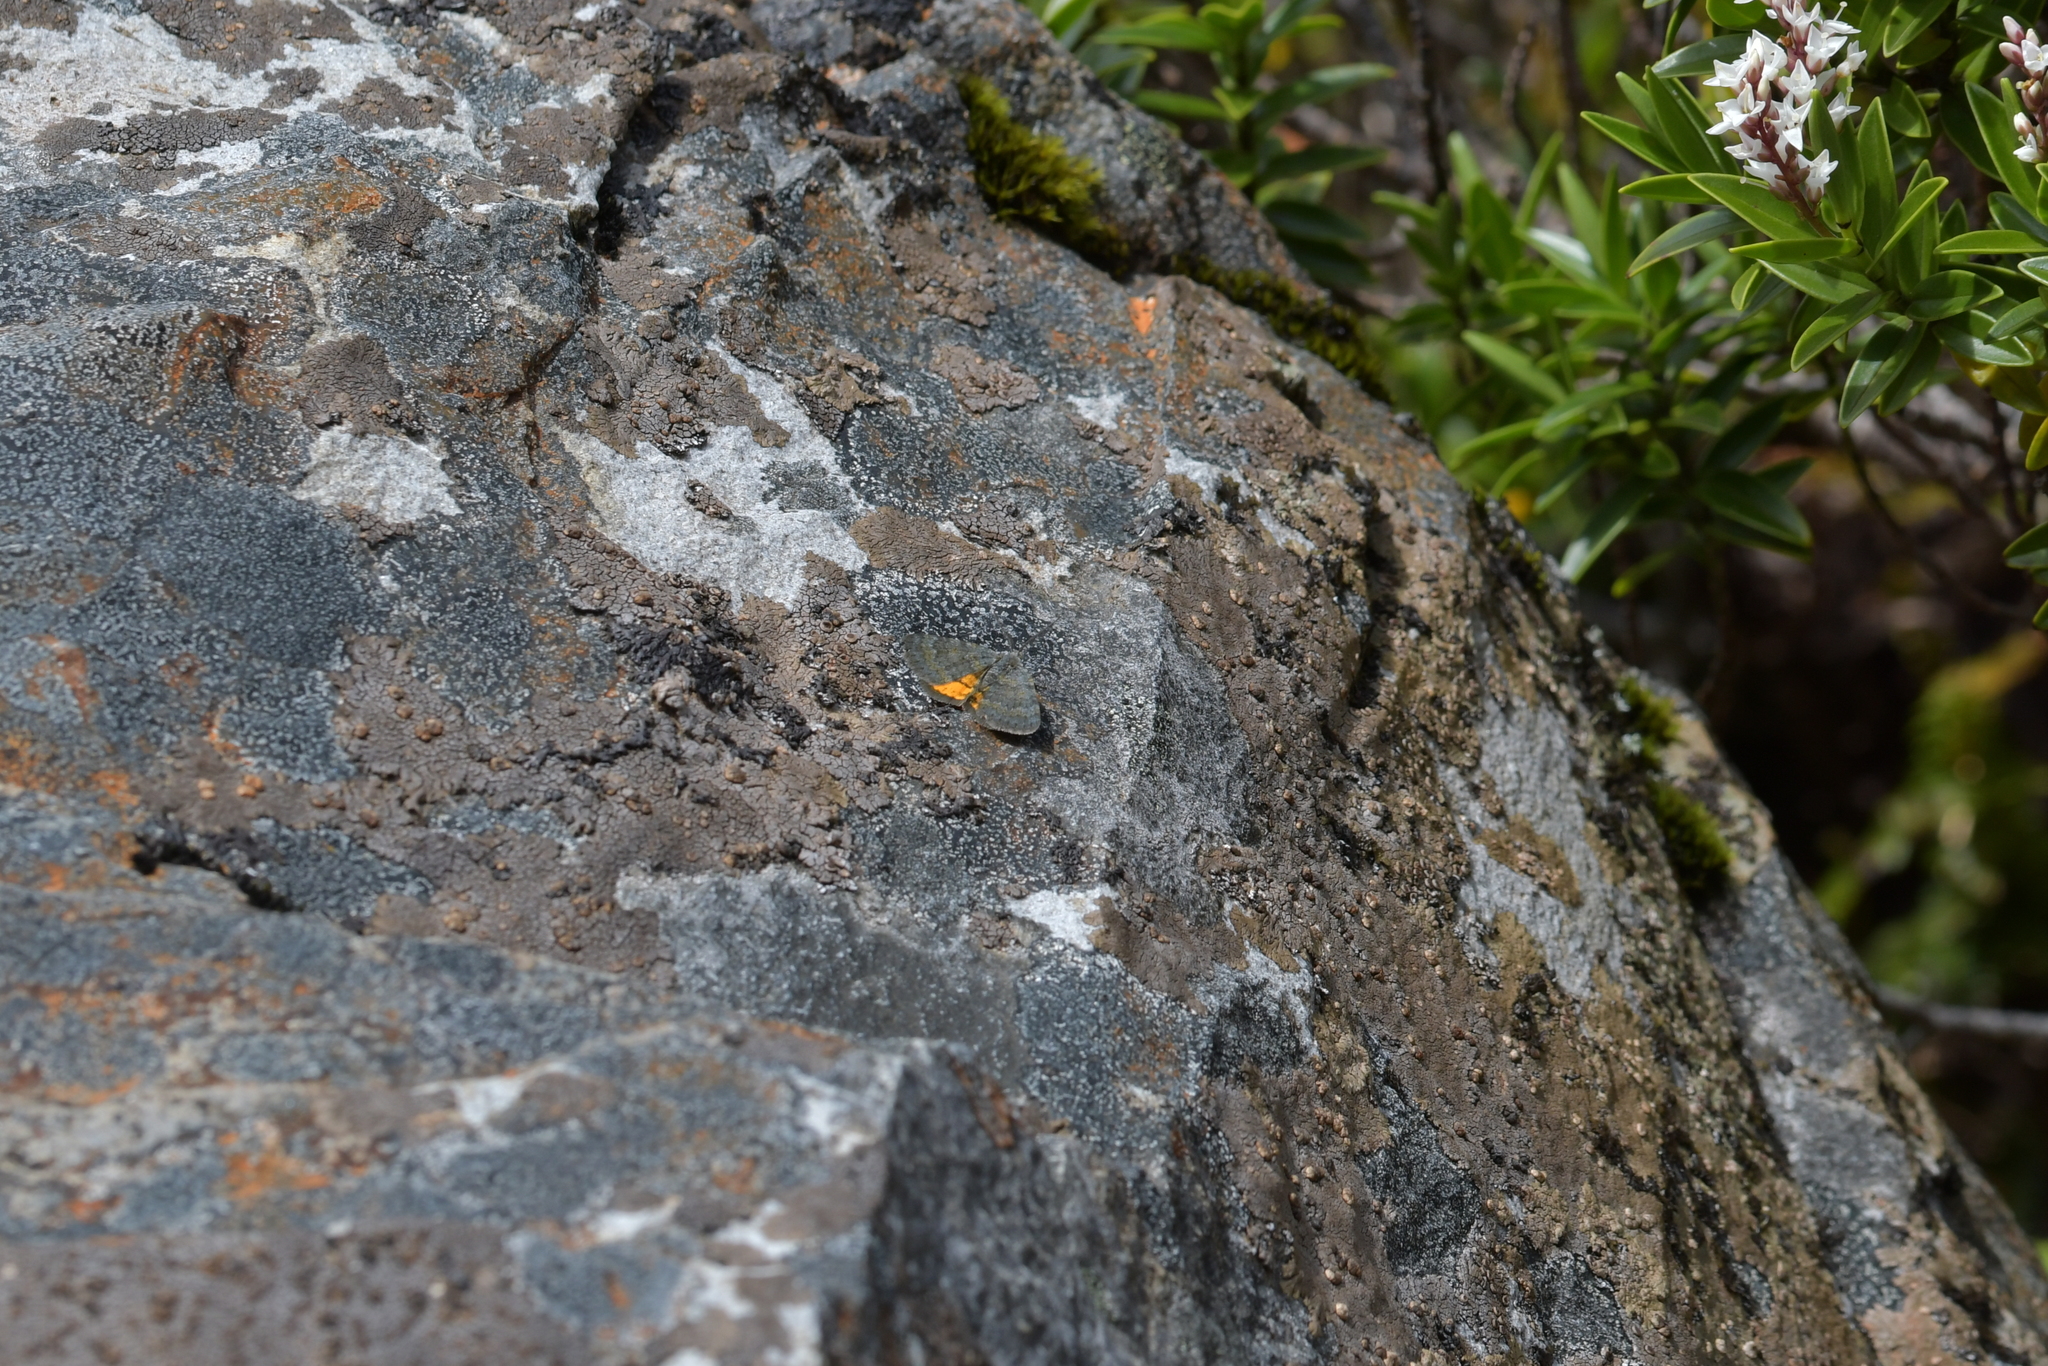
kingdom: Animalia
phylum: Arthropoda
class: Insecta
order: Lepidoptera
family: Geometridae
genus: Paranotoreas
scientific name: Paranotoreas brephosata
